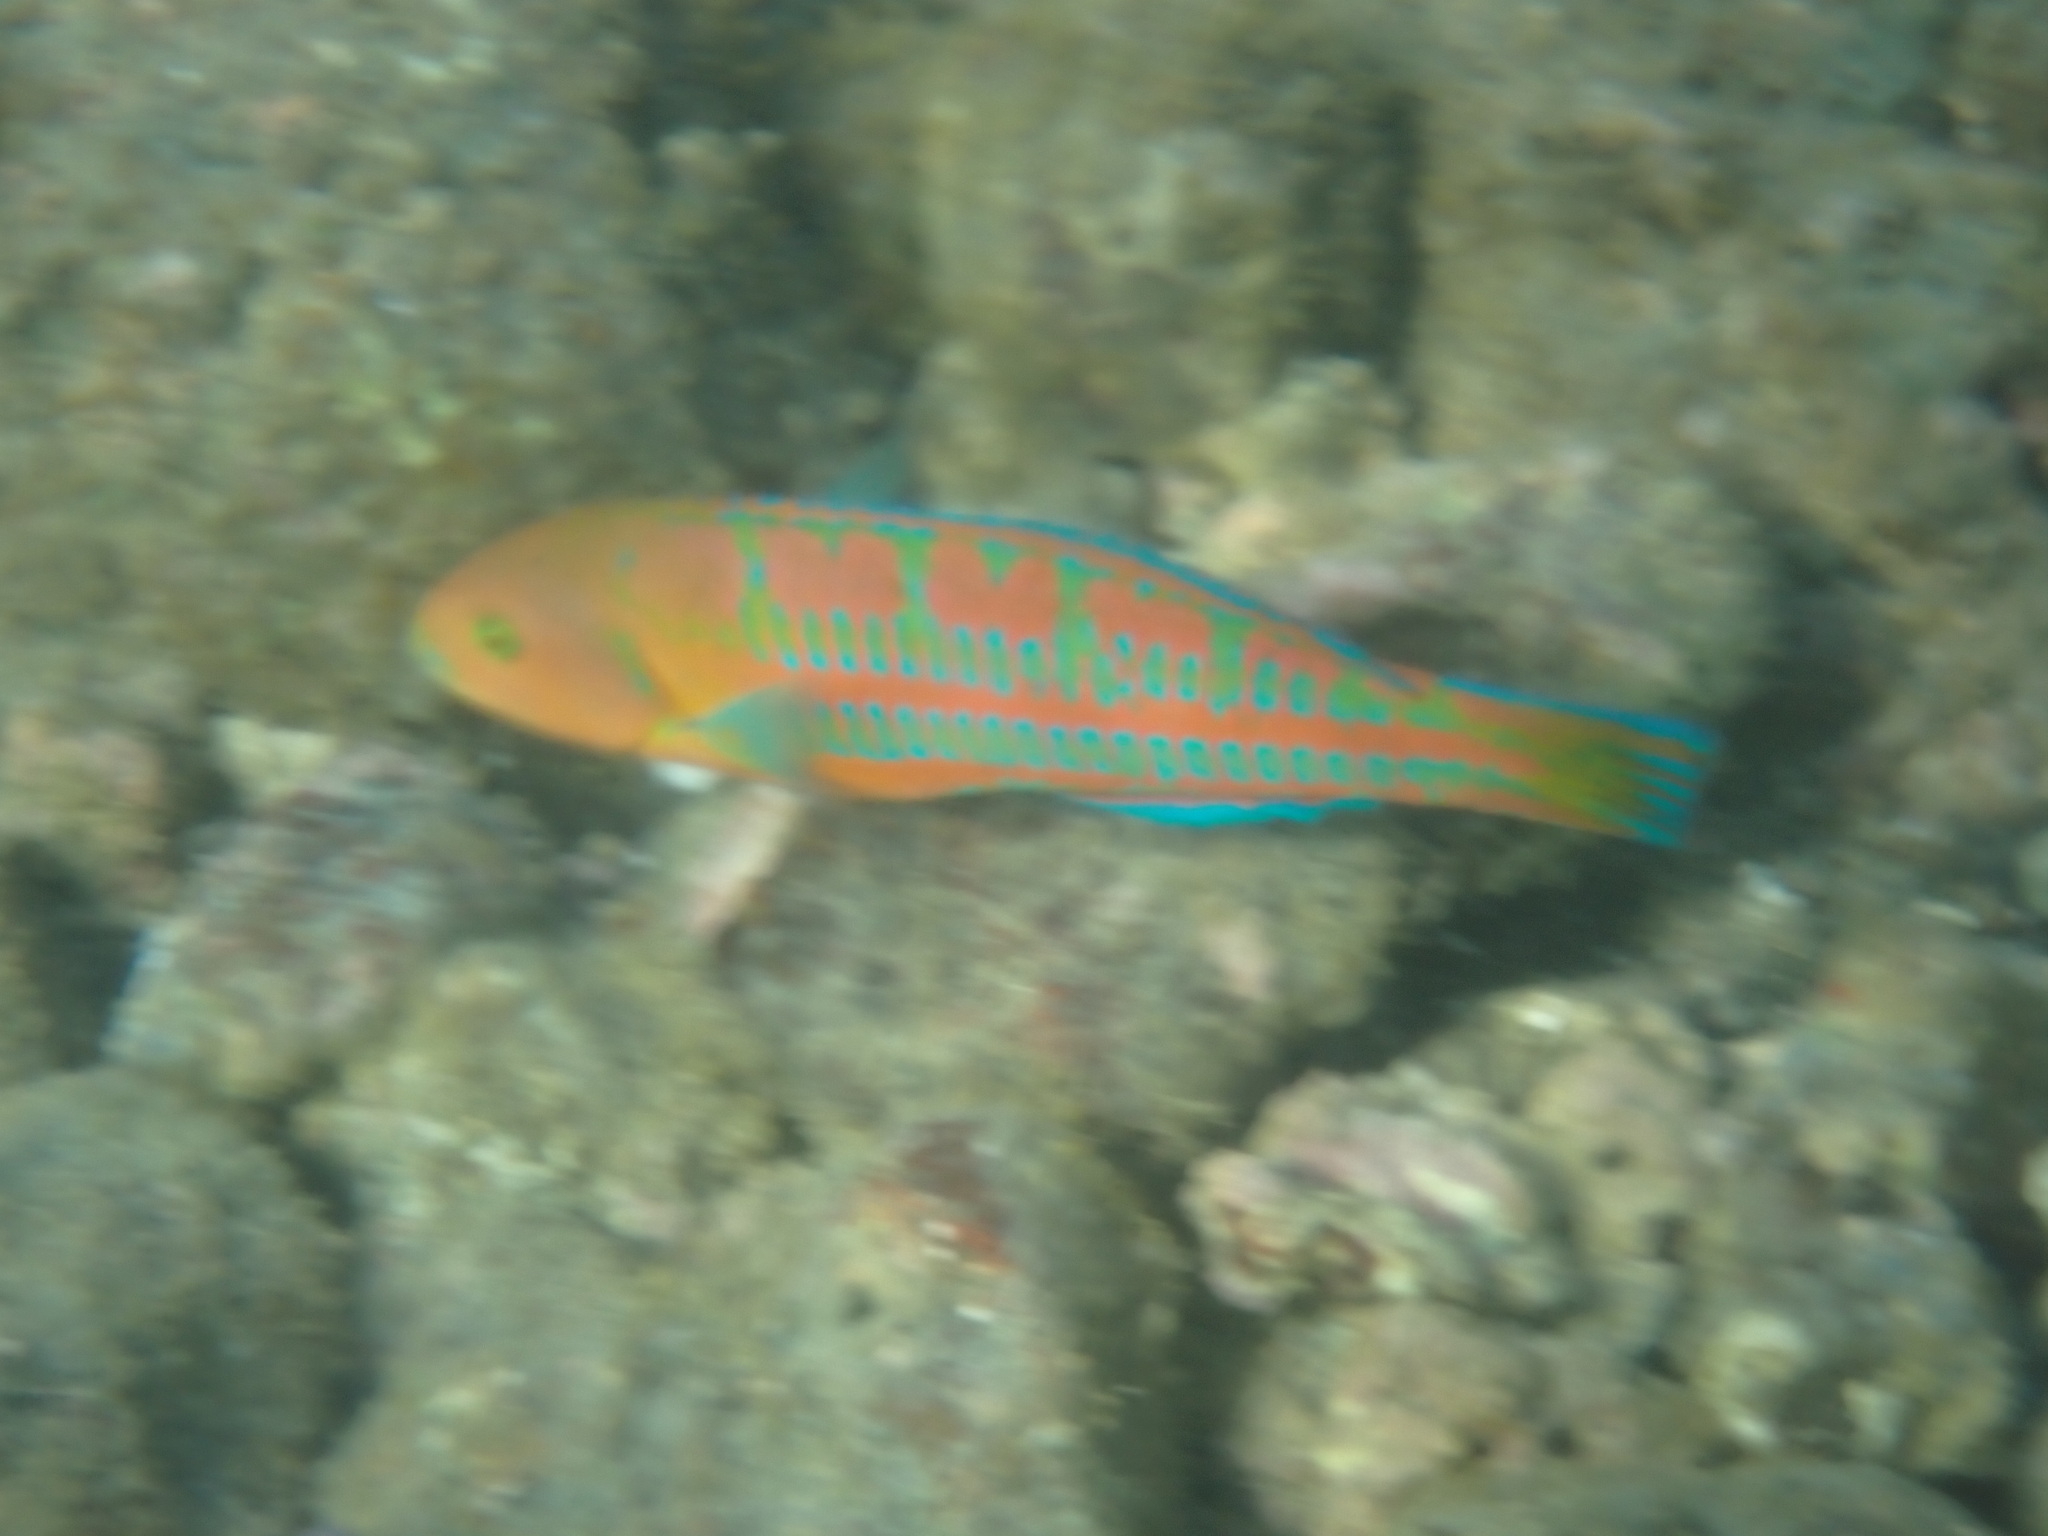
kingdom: Animalia
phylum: Chordata
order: Perciformes
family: Labridae
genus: Thalassoma
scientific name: Thalassoma trilobatum
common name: Christmas wrasse
